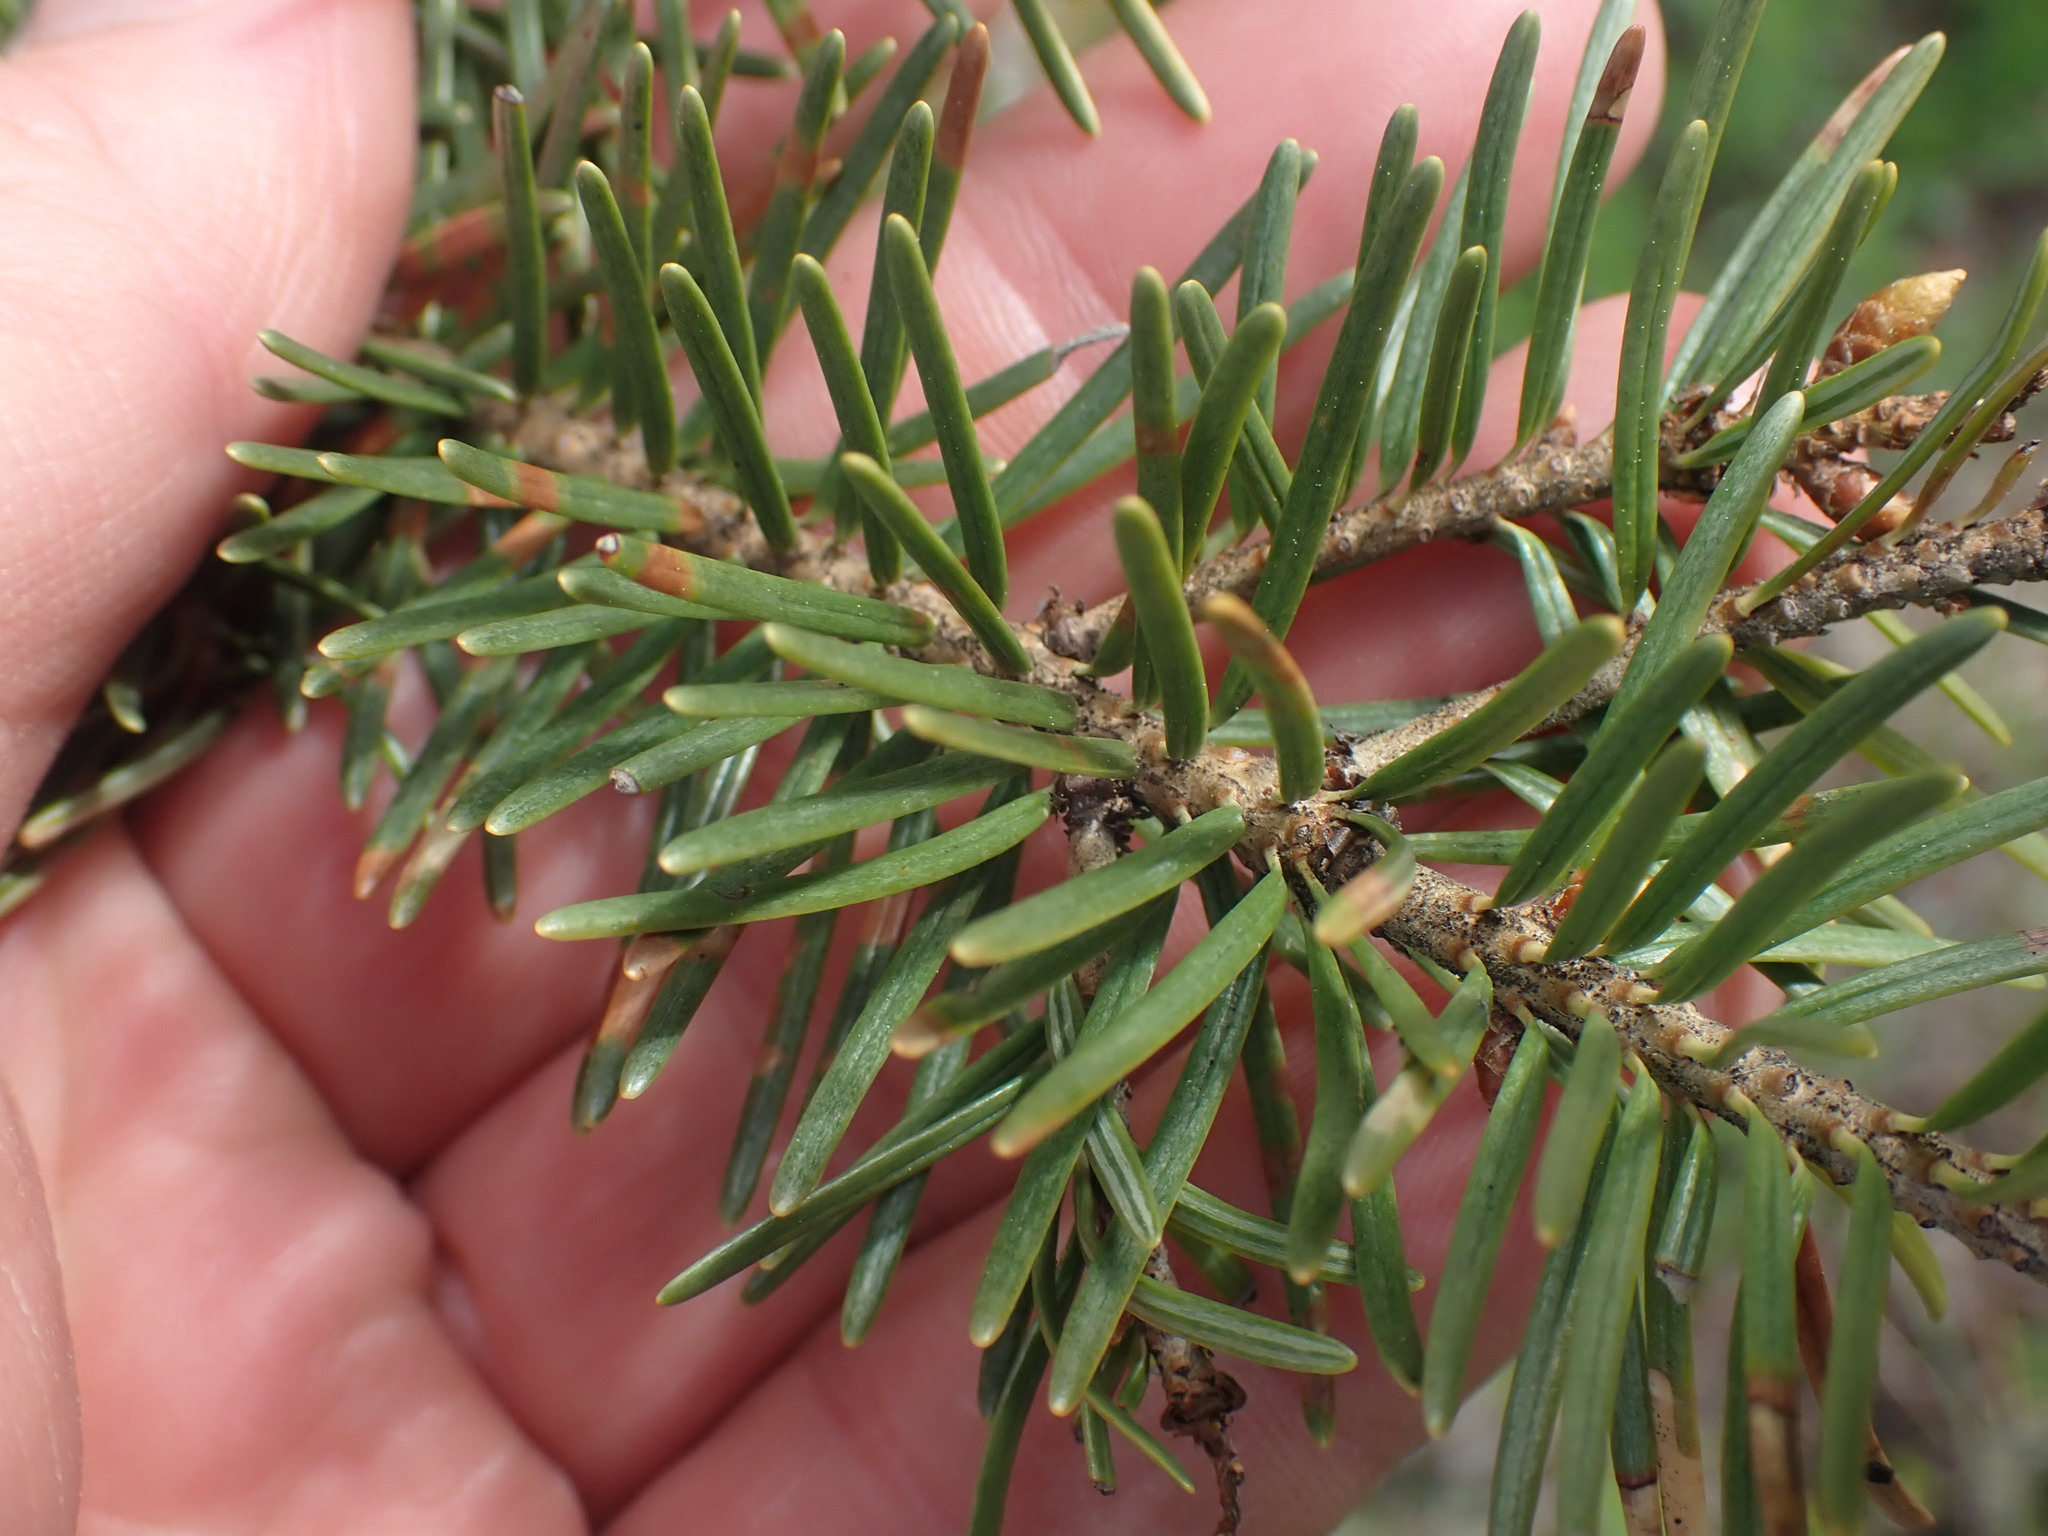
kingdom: Plantae
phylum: Tracheophyta
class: Pinopsida
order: Pinales
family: Pinaceae
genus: Pseudotsuga
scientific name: Pseudotsuga menziesii
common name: Douglas fir
